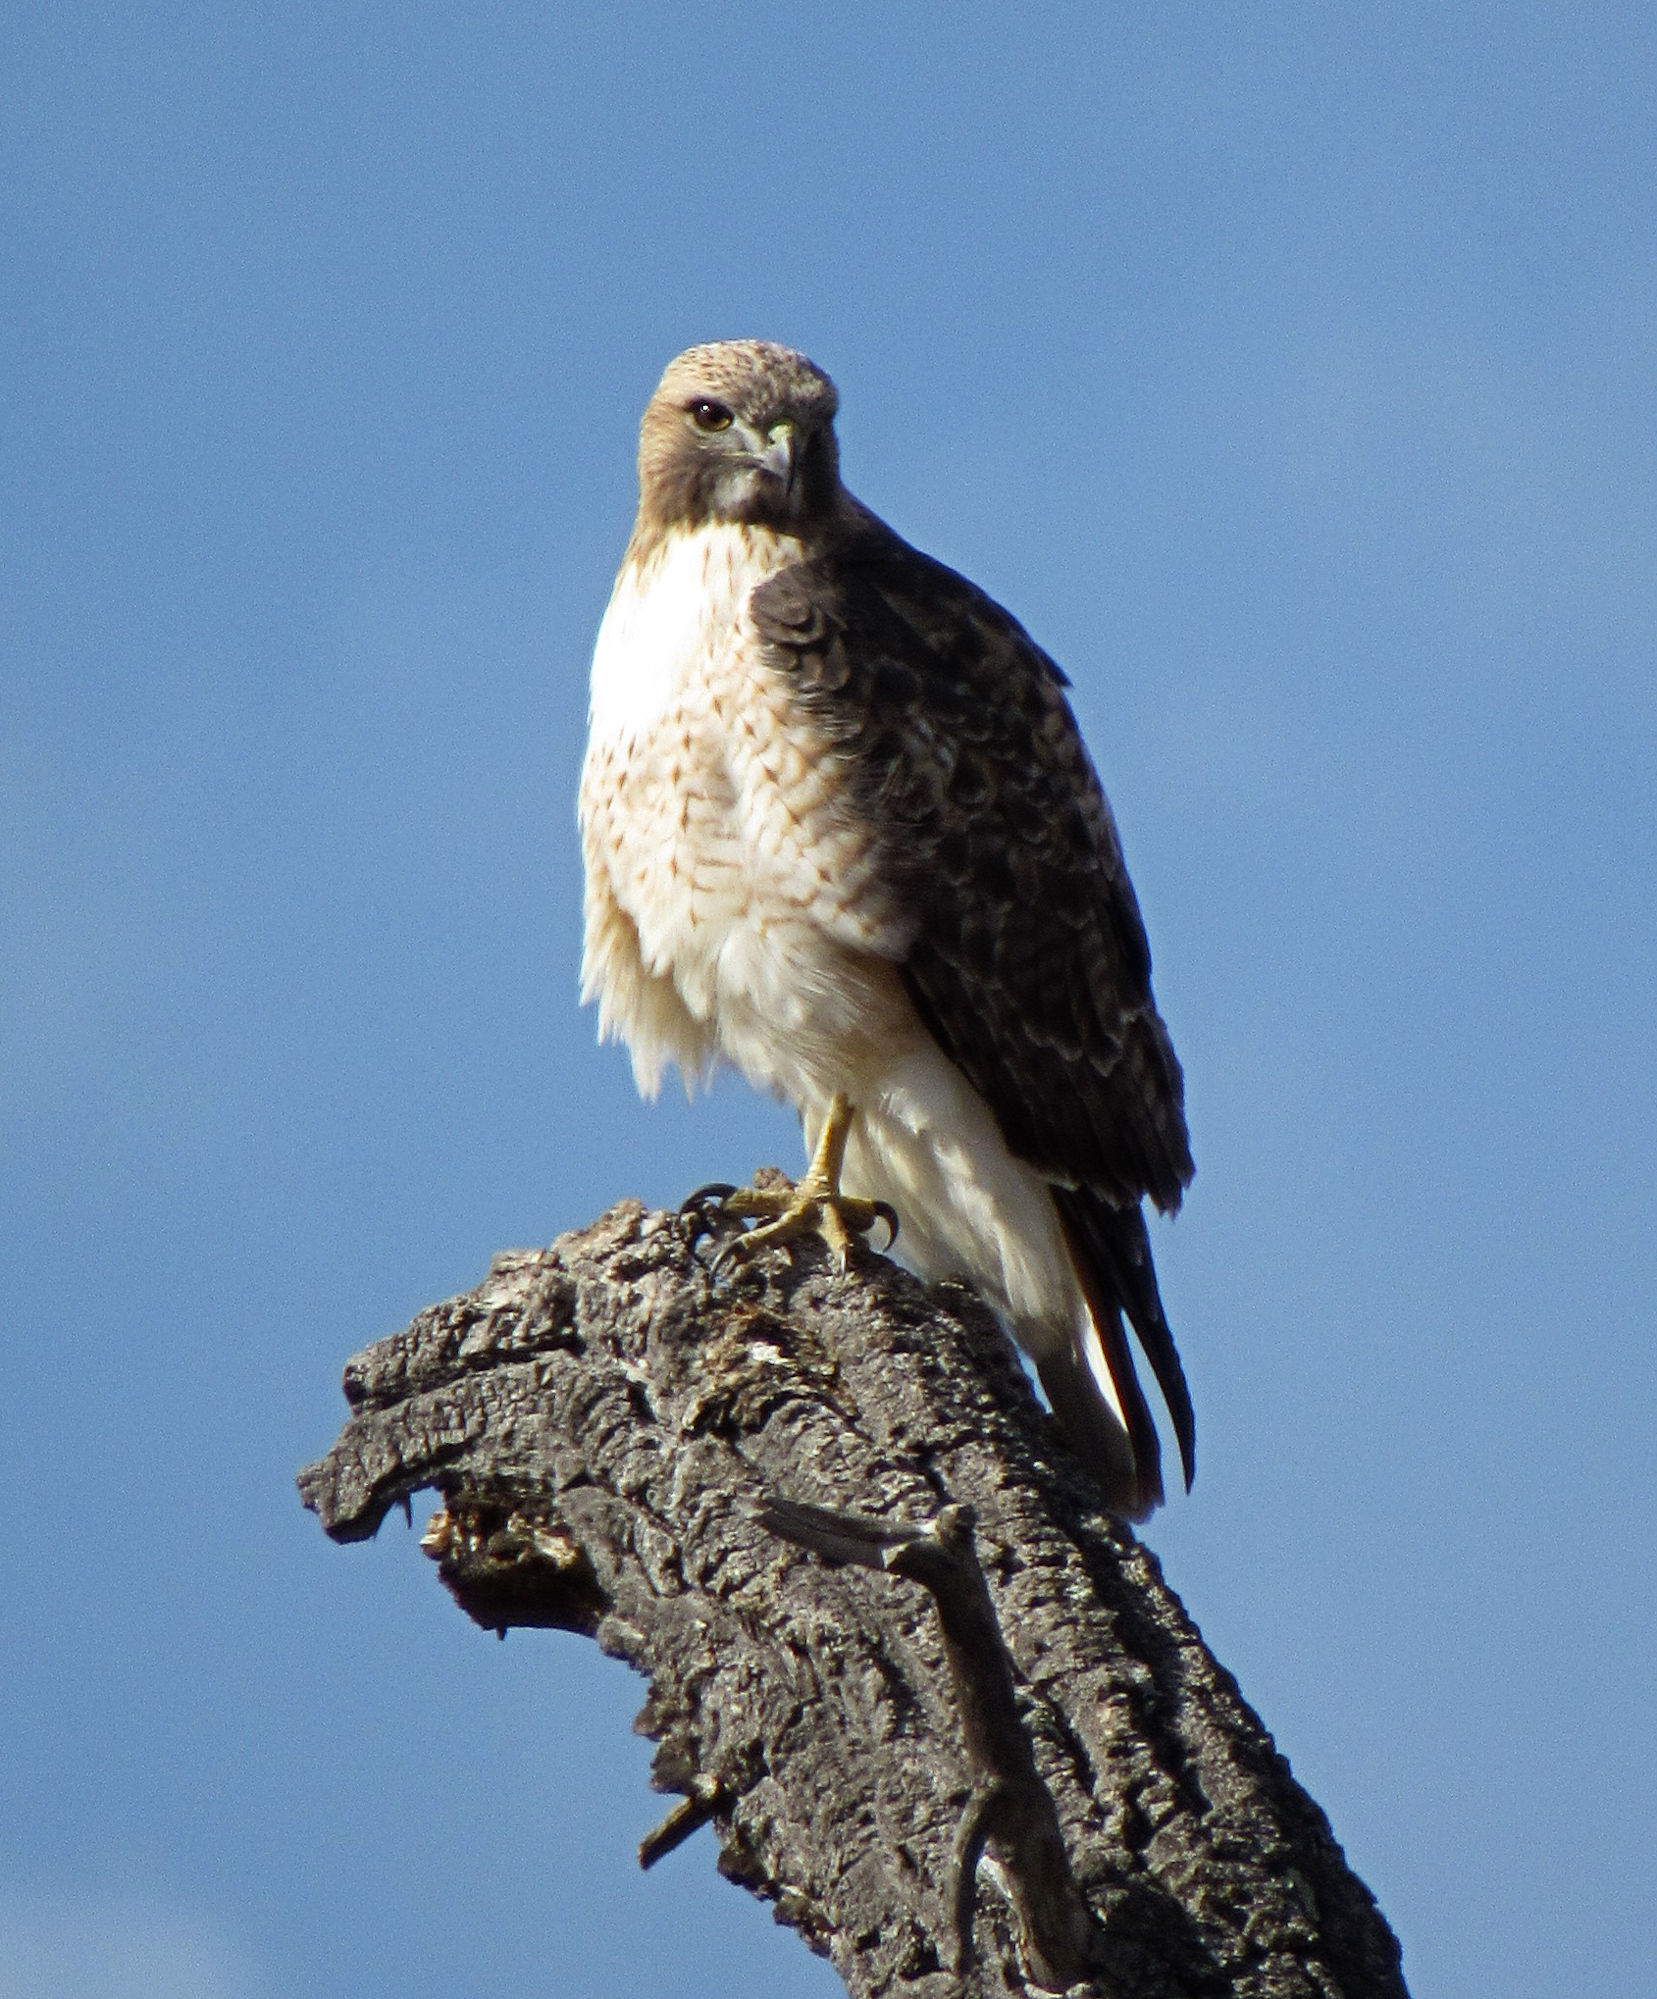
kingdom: Animalia
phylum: Chordata
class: Aves
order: Accipitriformes
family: Accipitridae
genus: Buteo
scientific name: Buteo jamaicensis
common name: Red-tailed hawk
